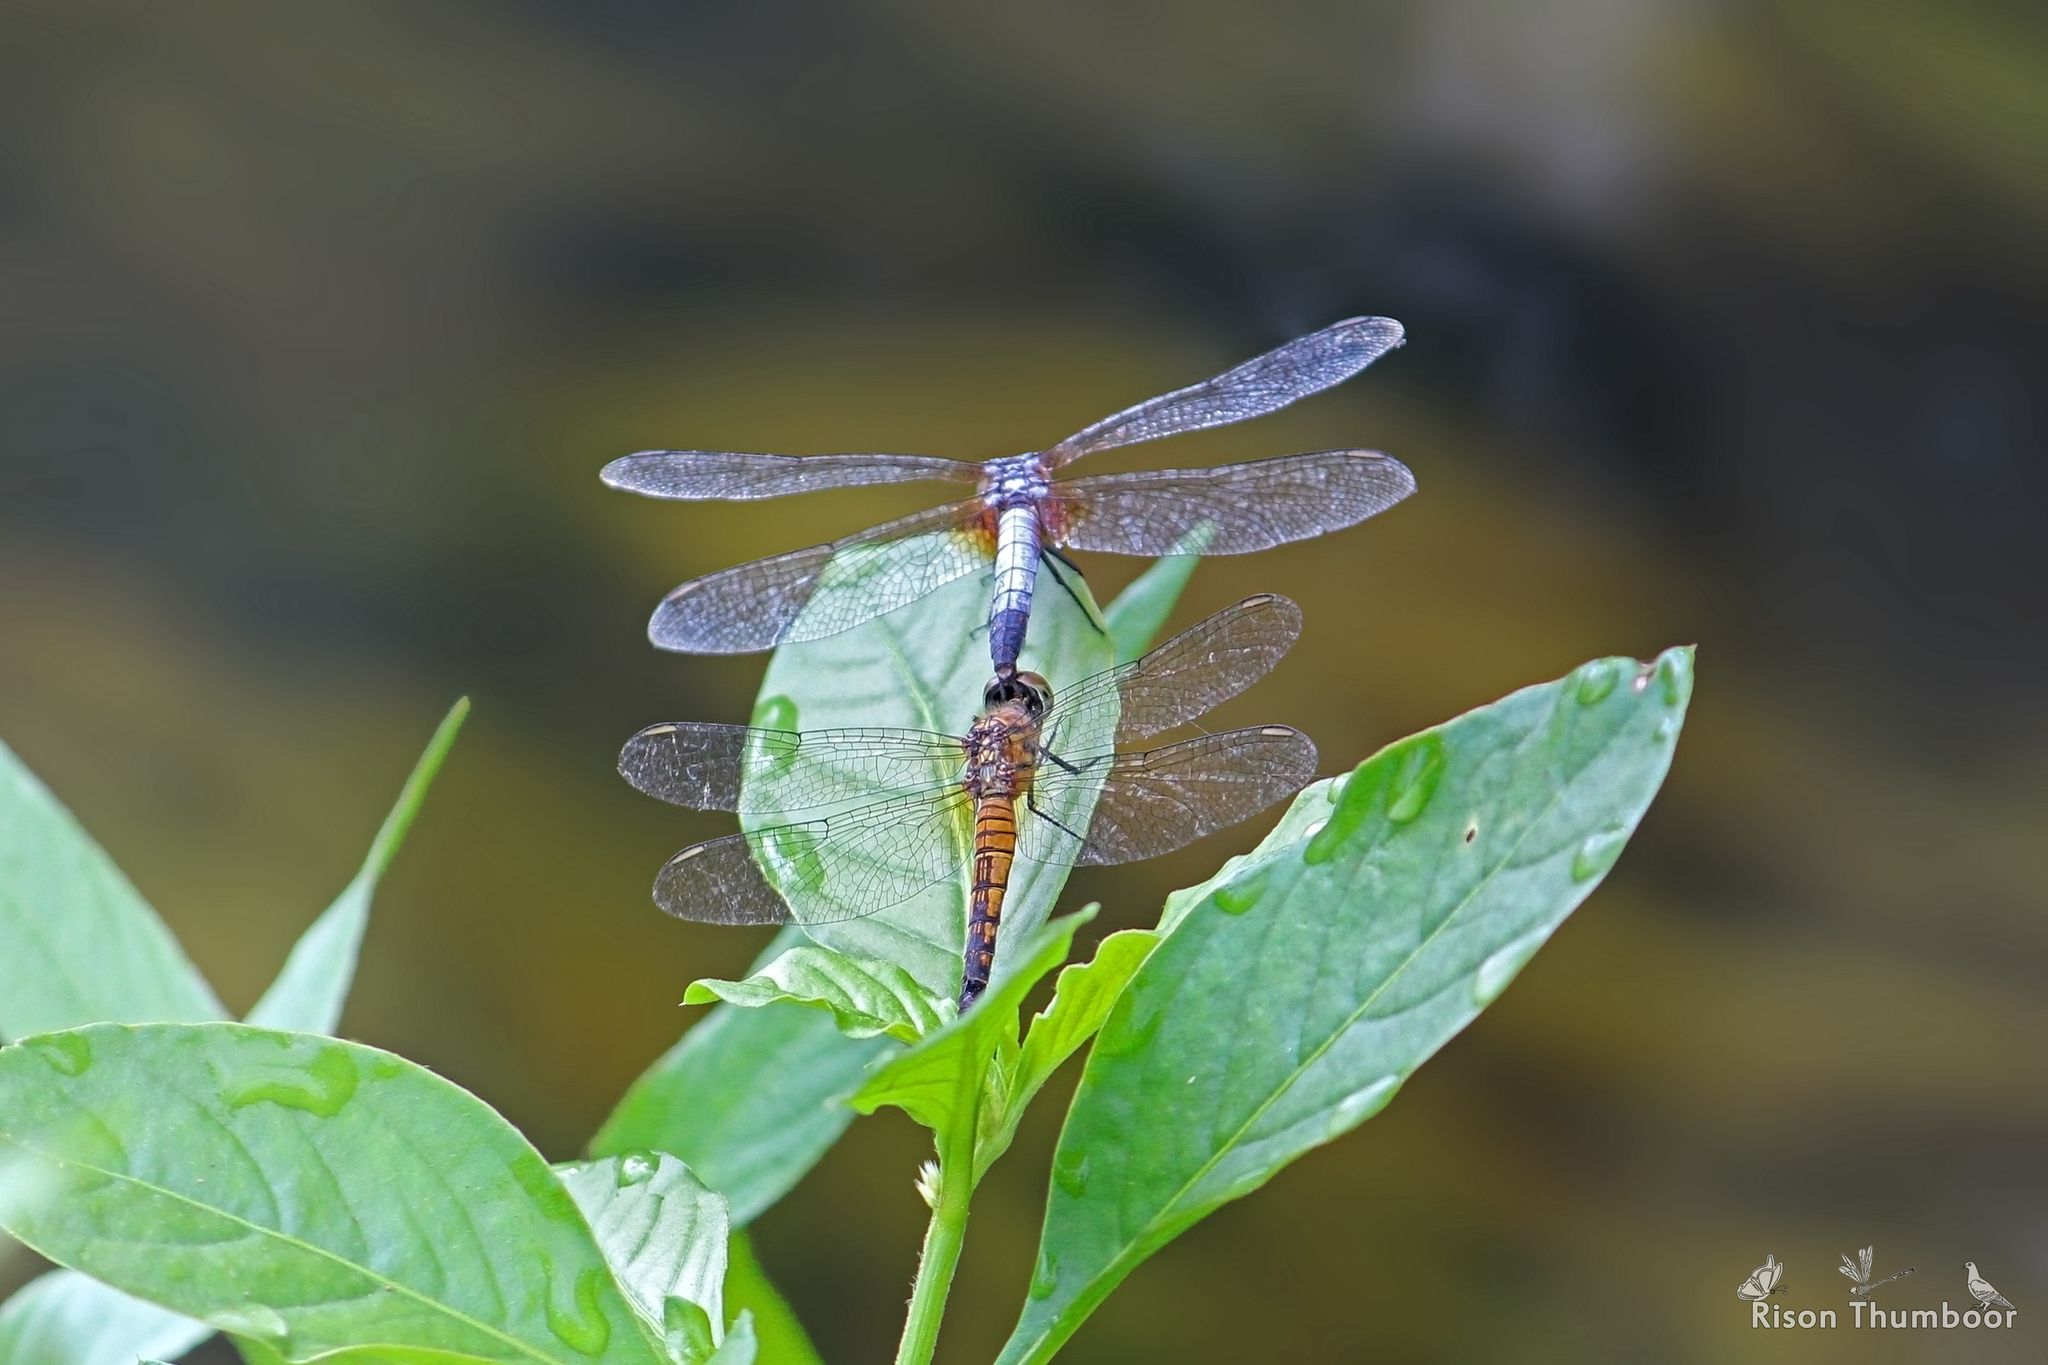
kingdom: Animalia
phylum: Arthropoda
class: Insecta
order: Odonata
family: Libellulidae
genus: Brachydiplax
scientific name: Brachydiplax chalybea
